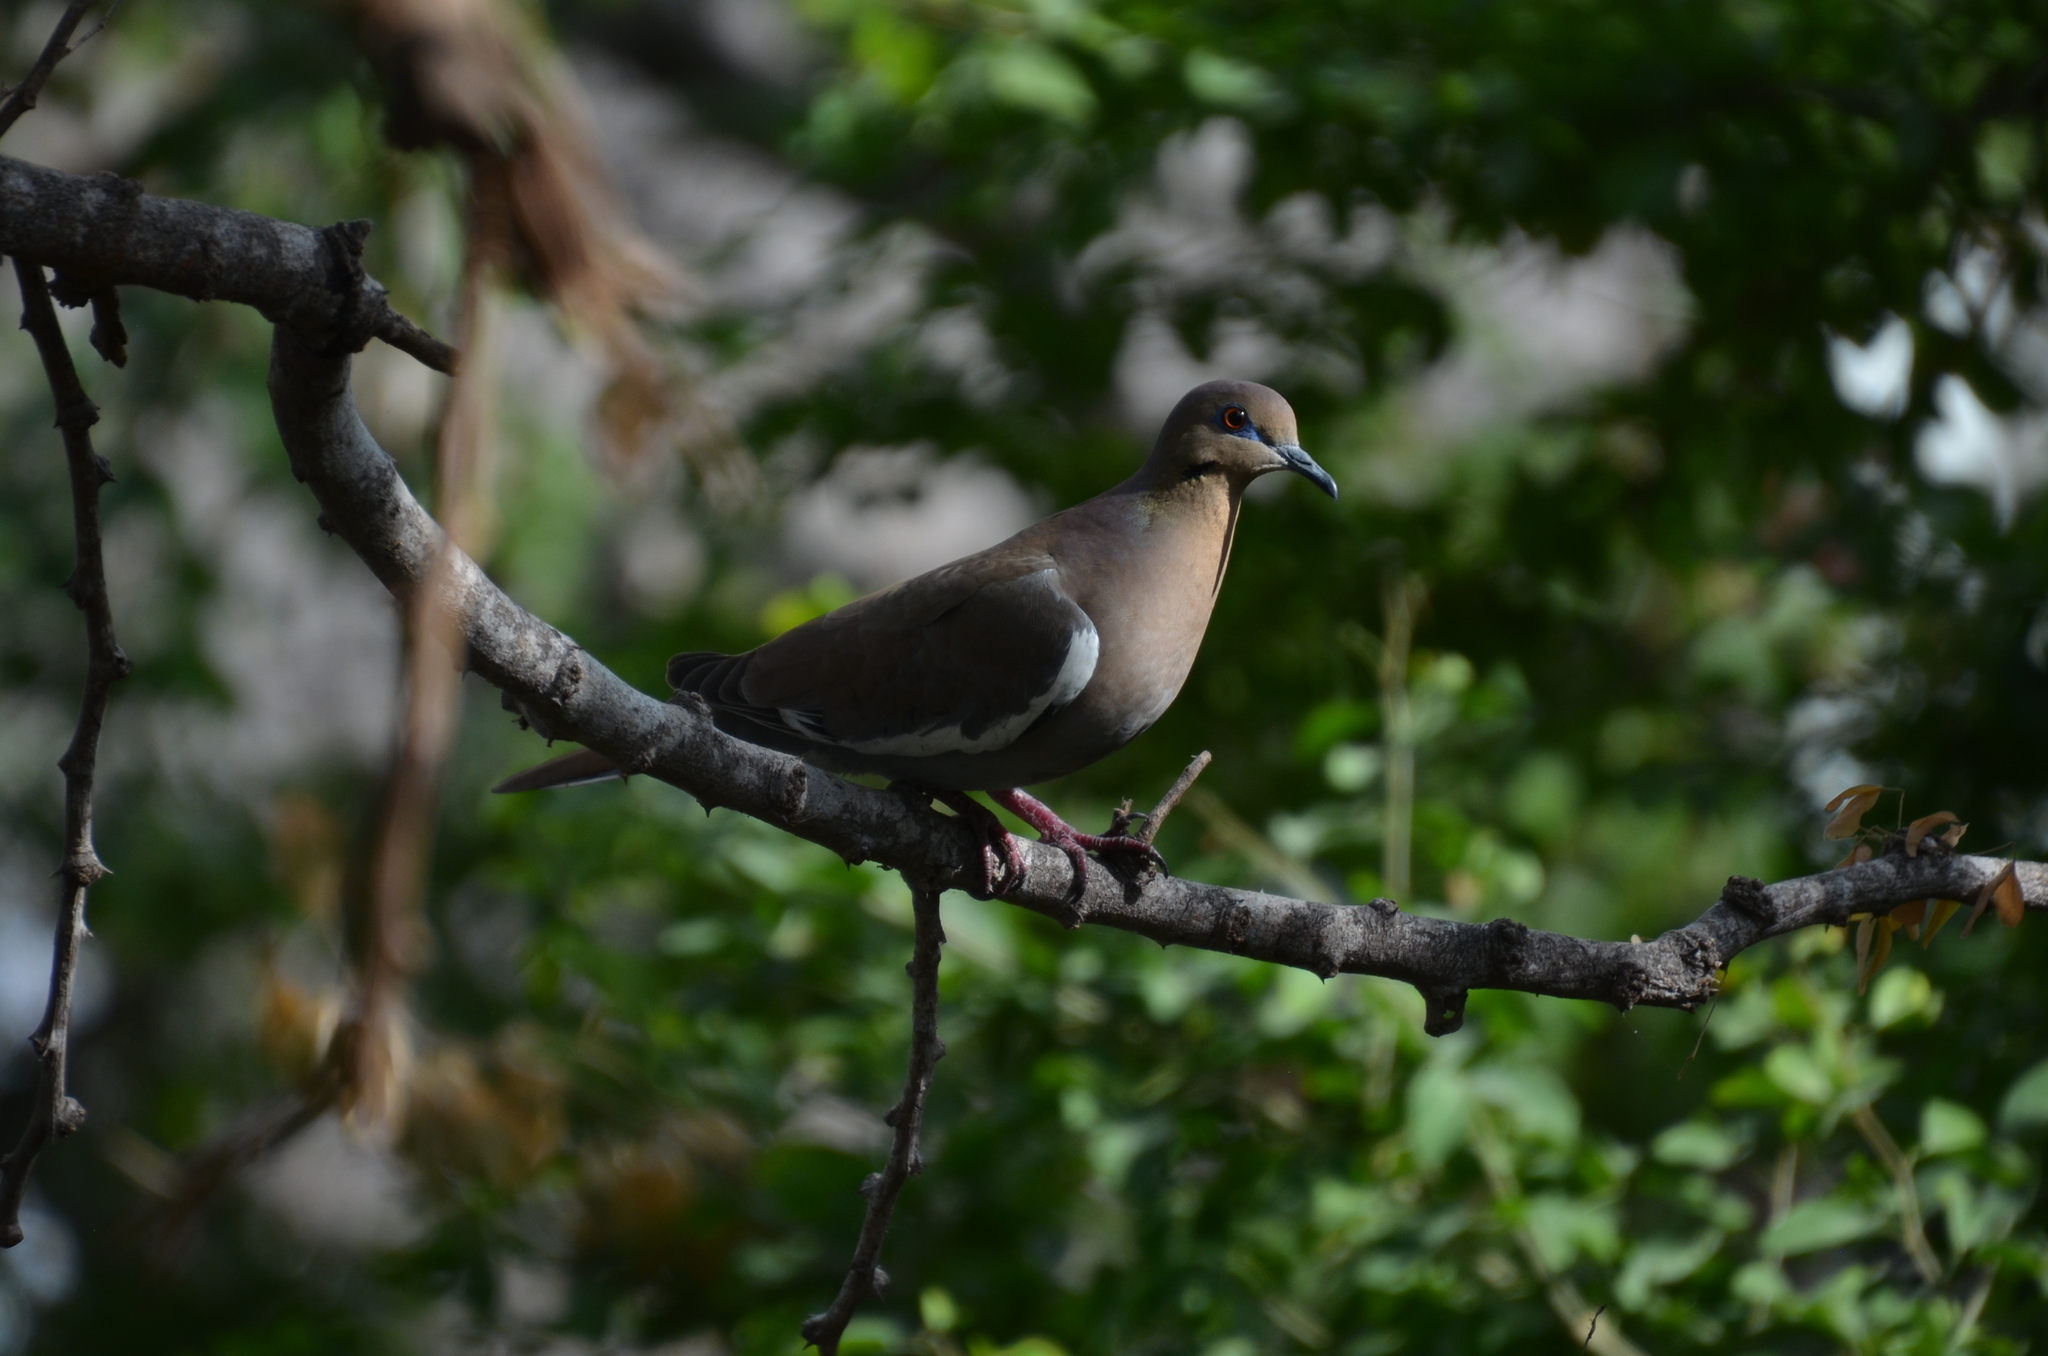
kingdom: Animalia
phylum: Chordata
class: Aves
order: Columbiformes
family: Columbidae
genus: Zenaida
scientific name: Zenaida asiatica
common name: White-winged dove
